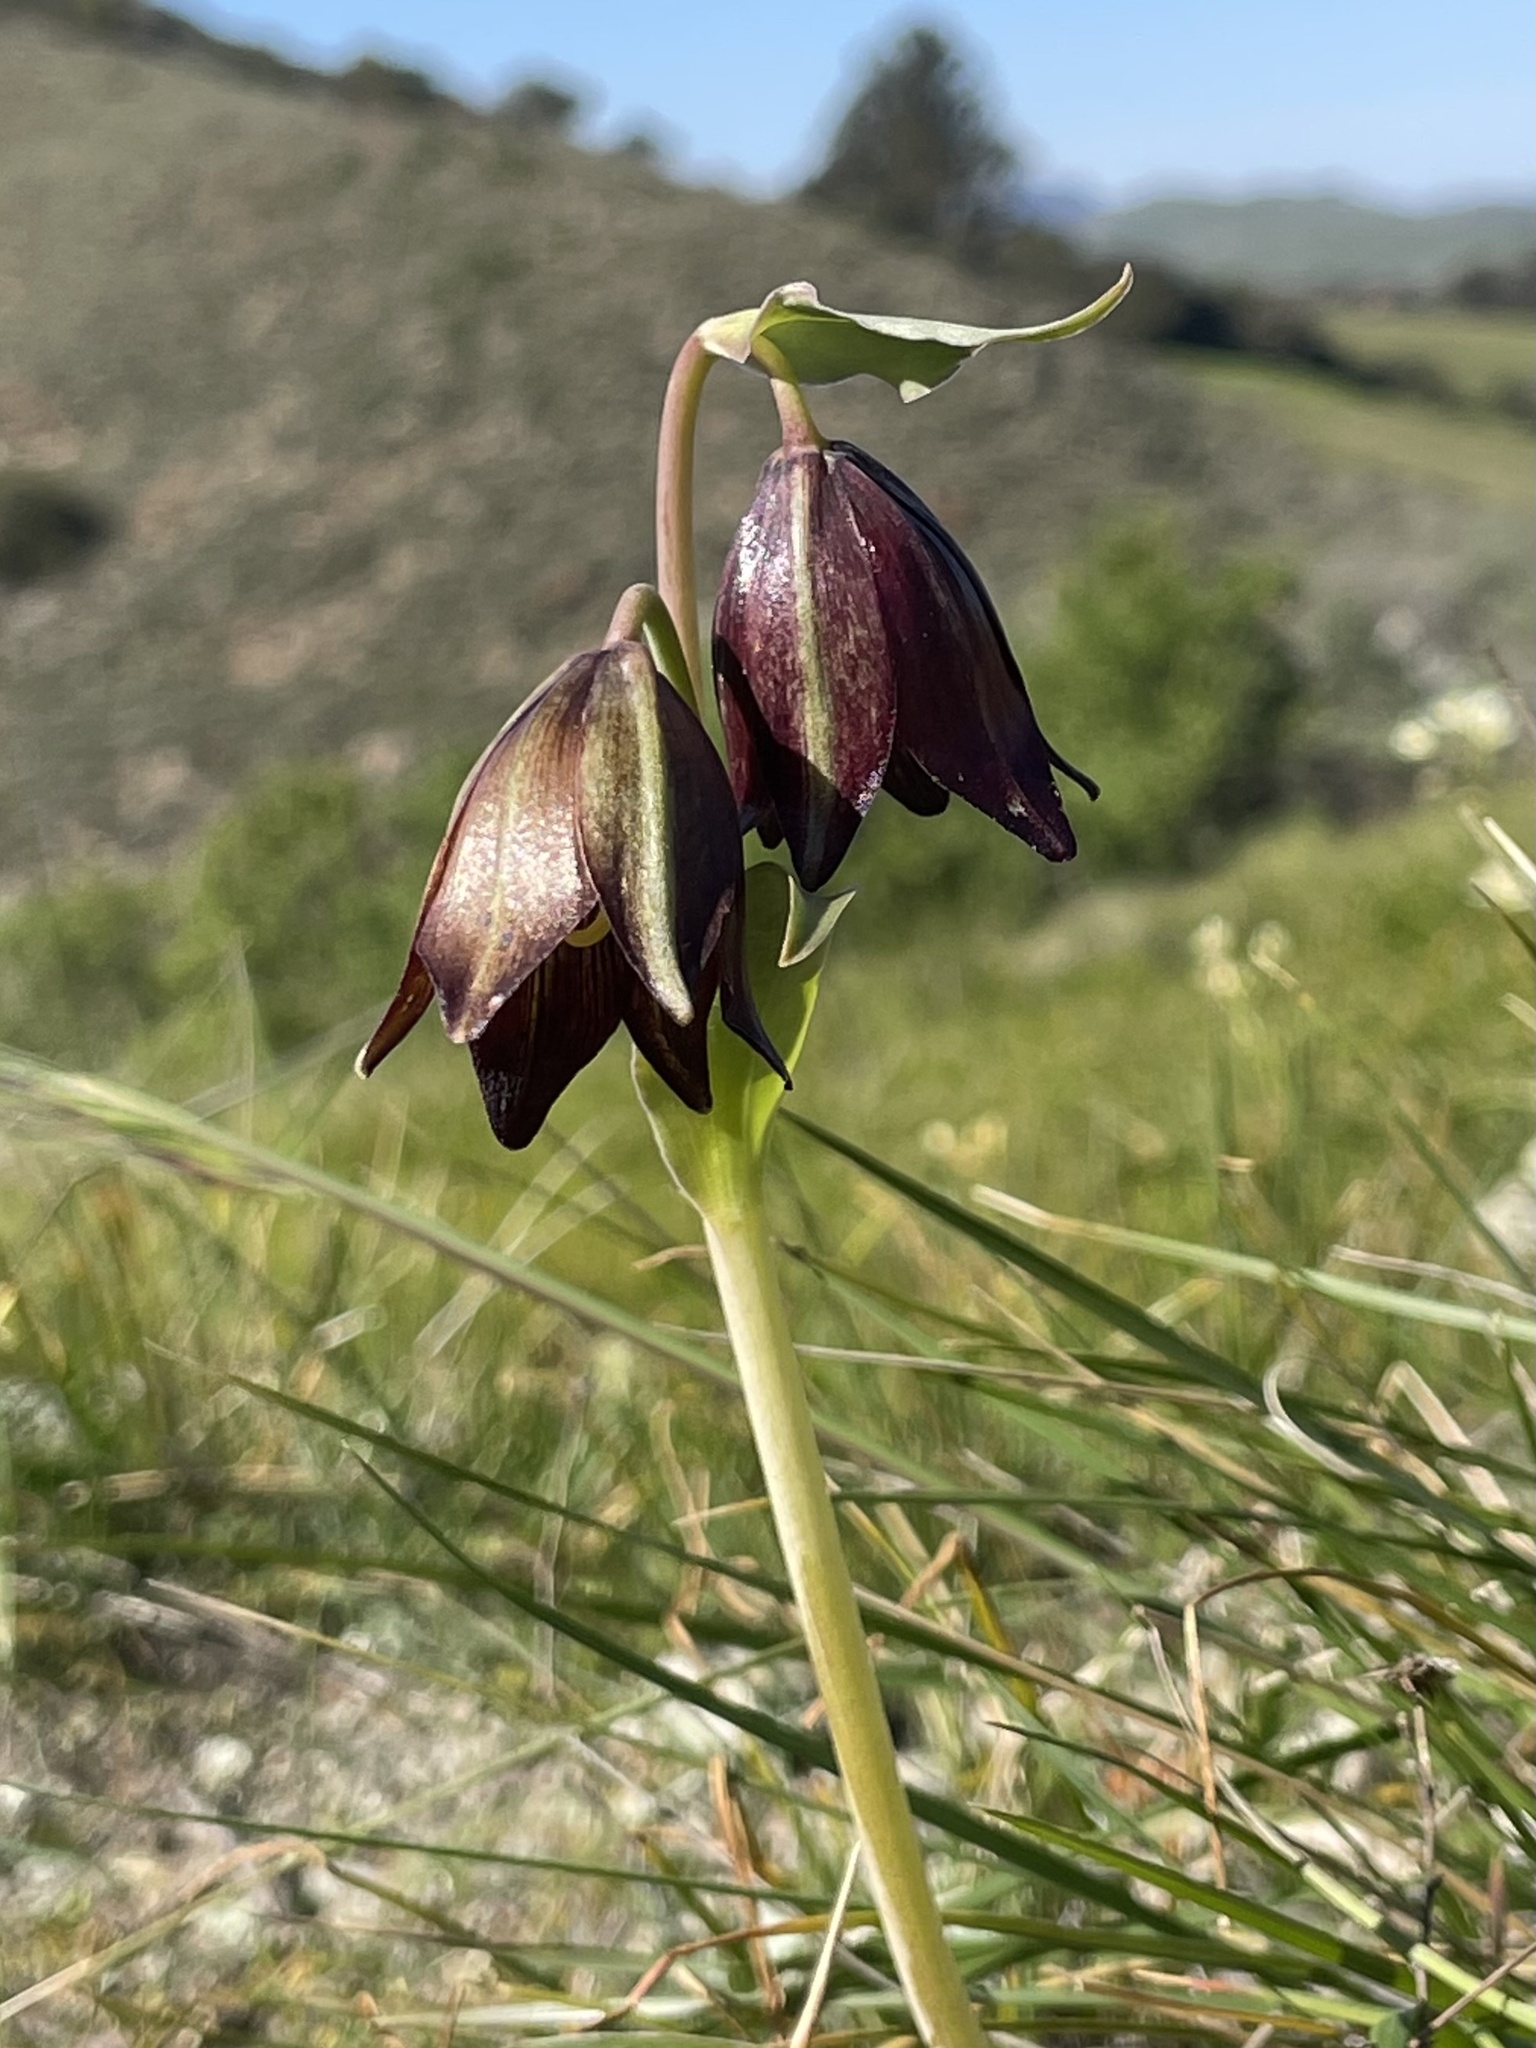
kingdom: Plantae
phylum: Tracheophyta
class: Liliopsida
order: Liliales
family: Liliaceae
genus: Fritillaria
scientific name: Fritillaria biflora
